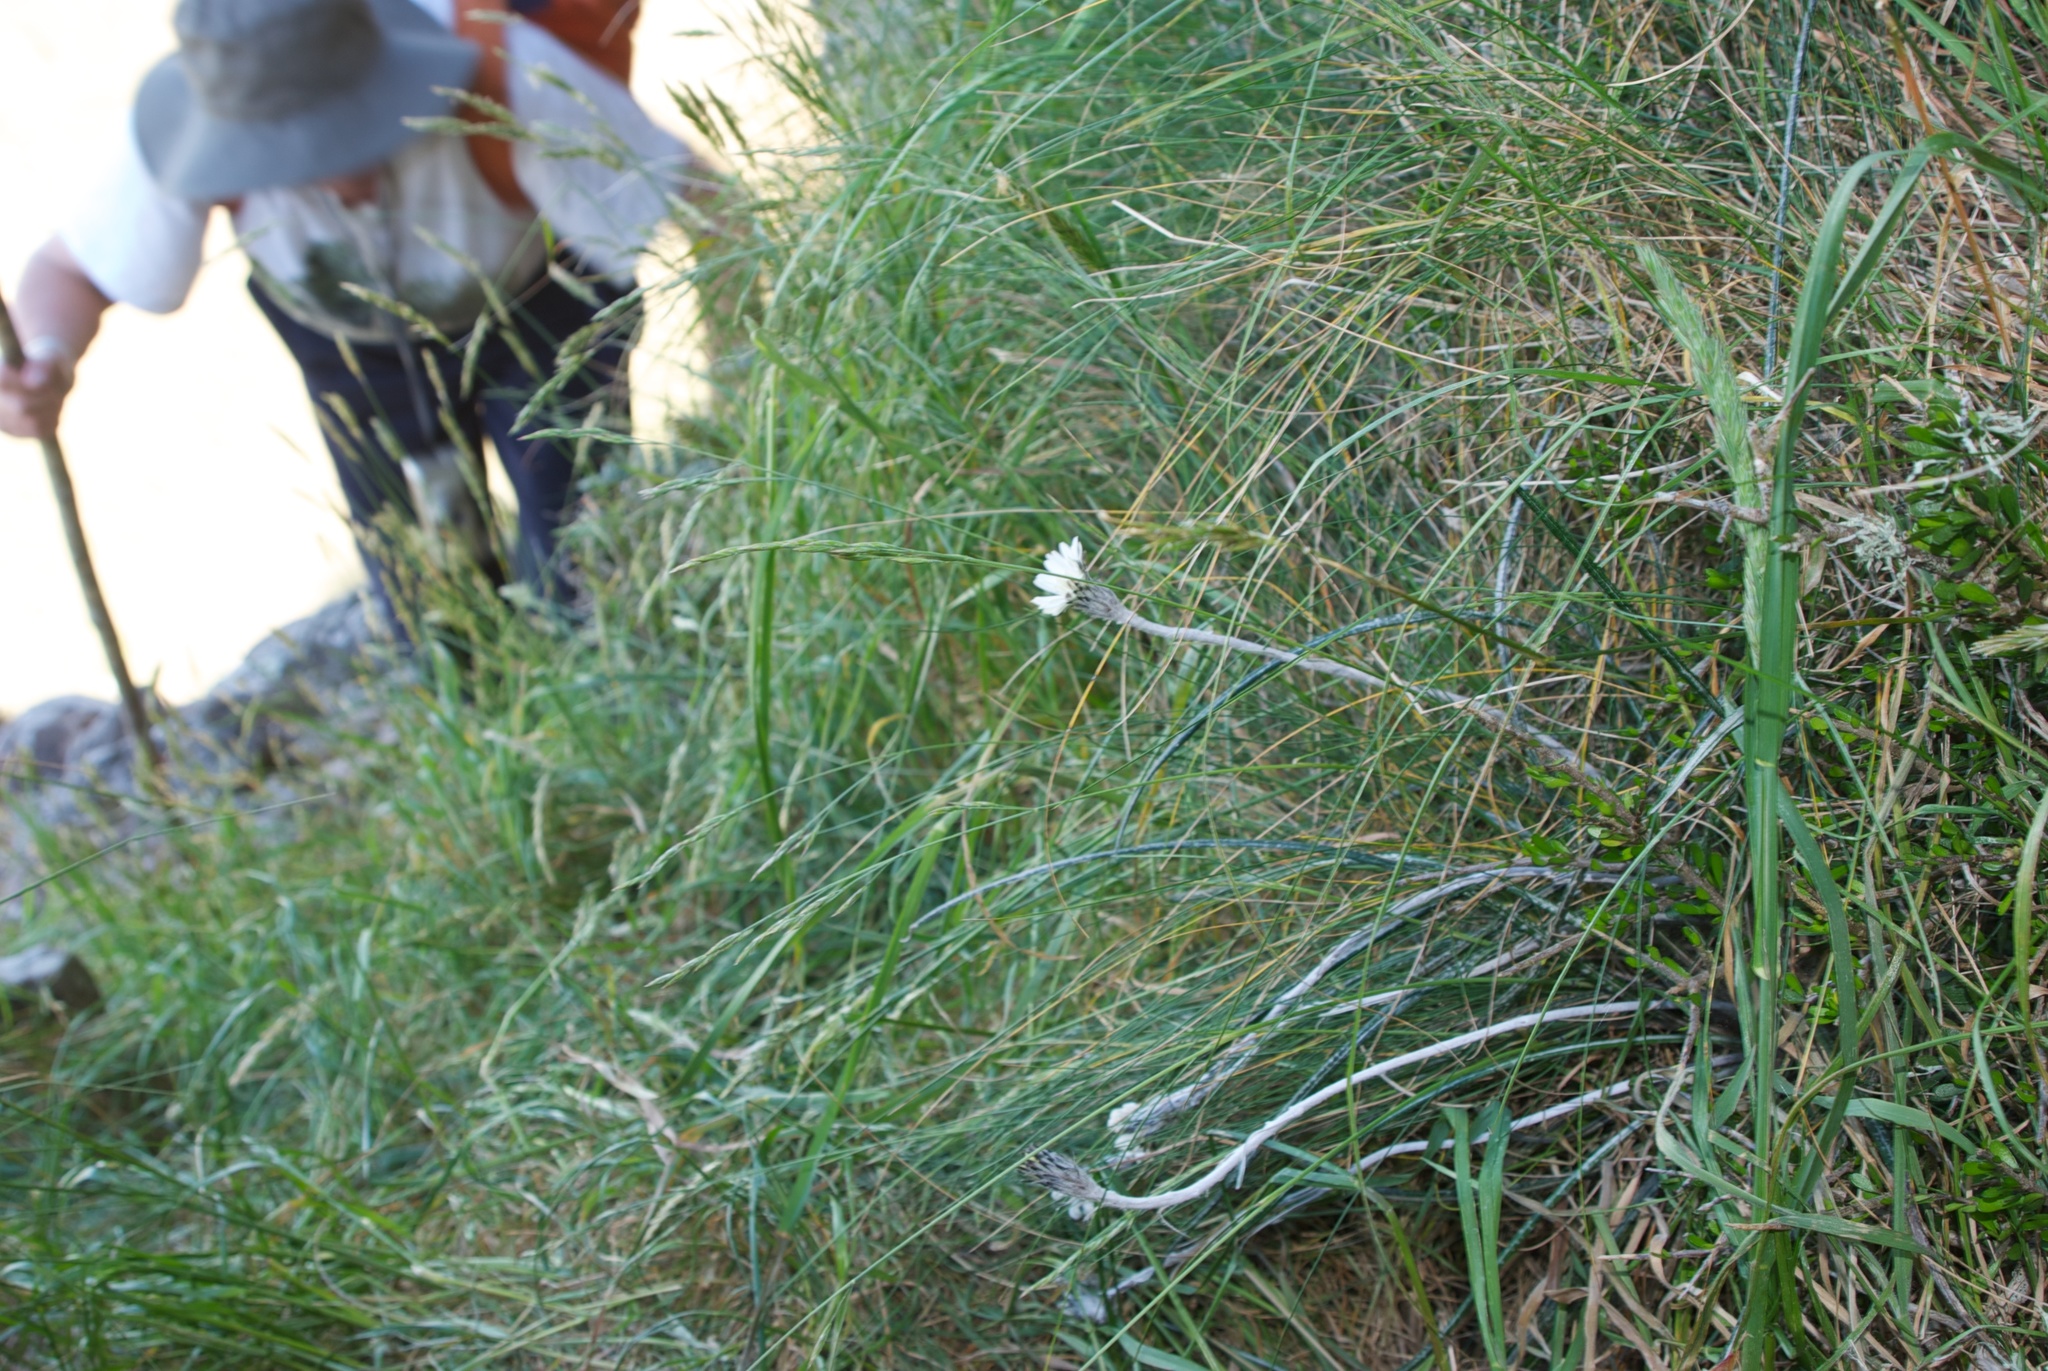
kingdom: Plantae
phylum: Tracheophyta
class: Magnoliopsida
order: Asterales
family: Asteraceae
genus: Celmisia
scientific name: Celmisia gracilenta
